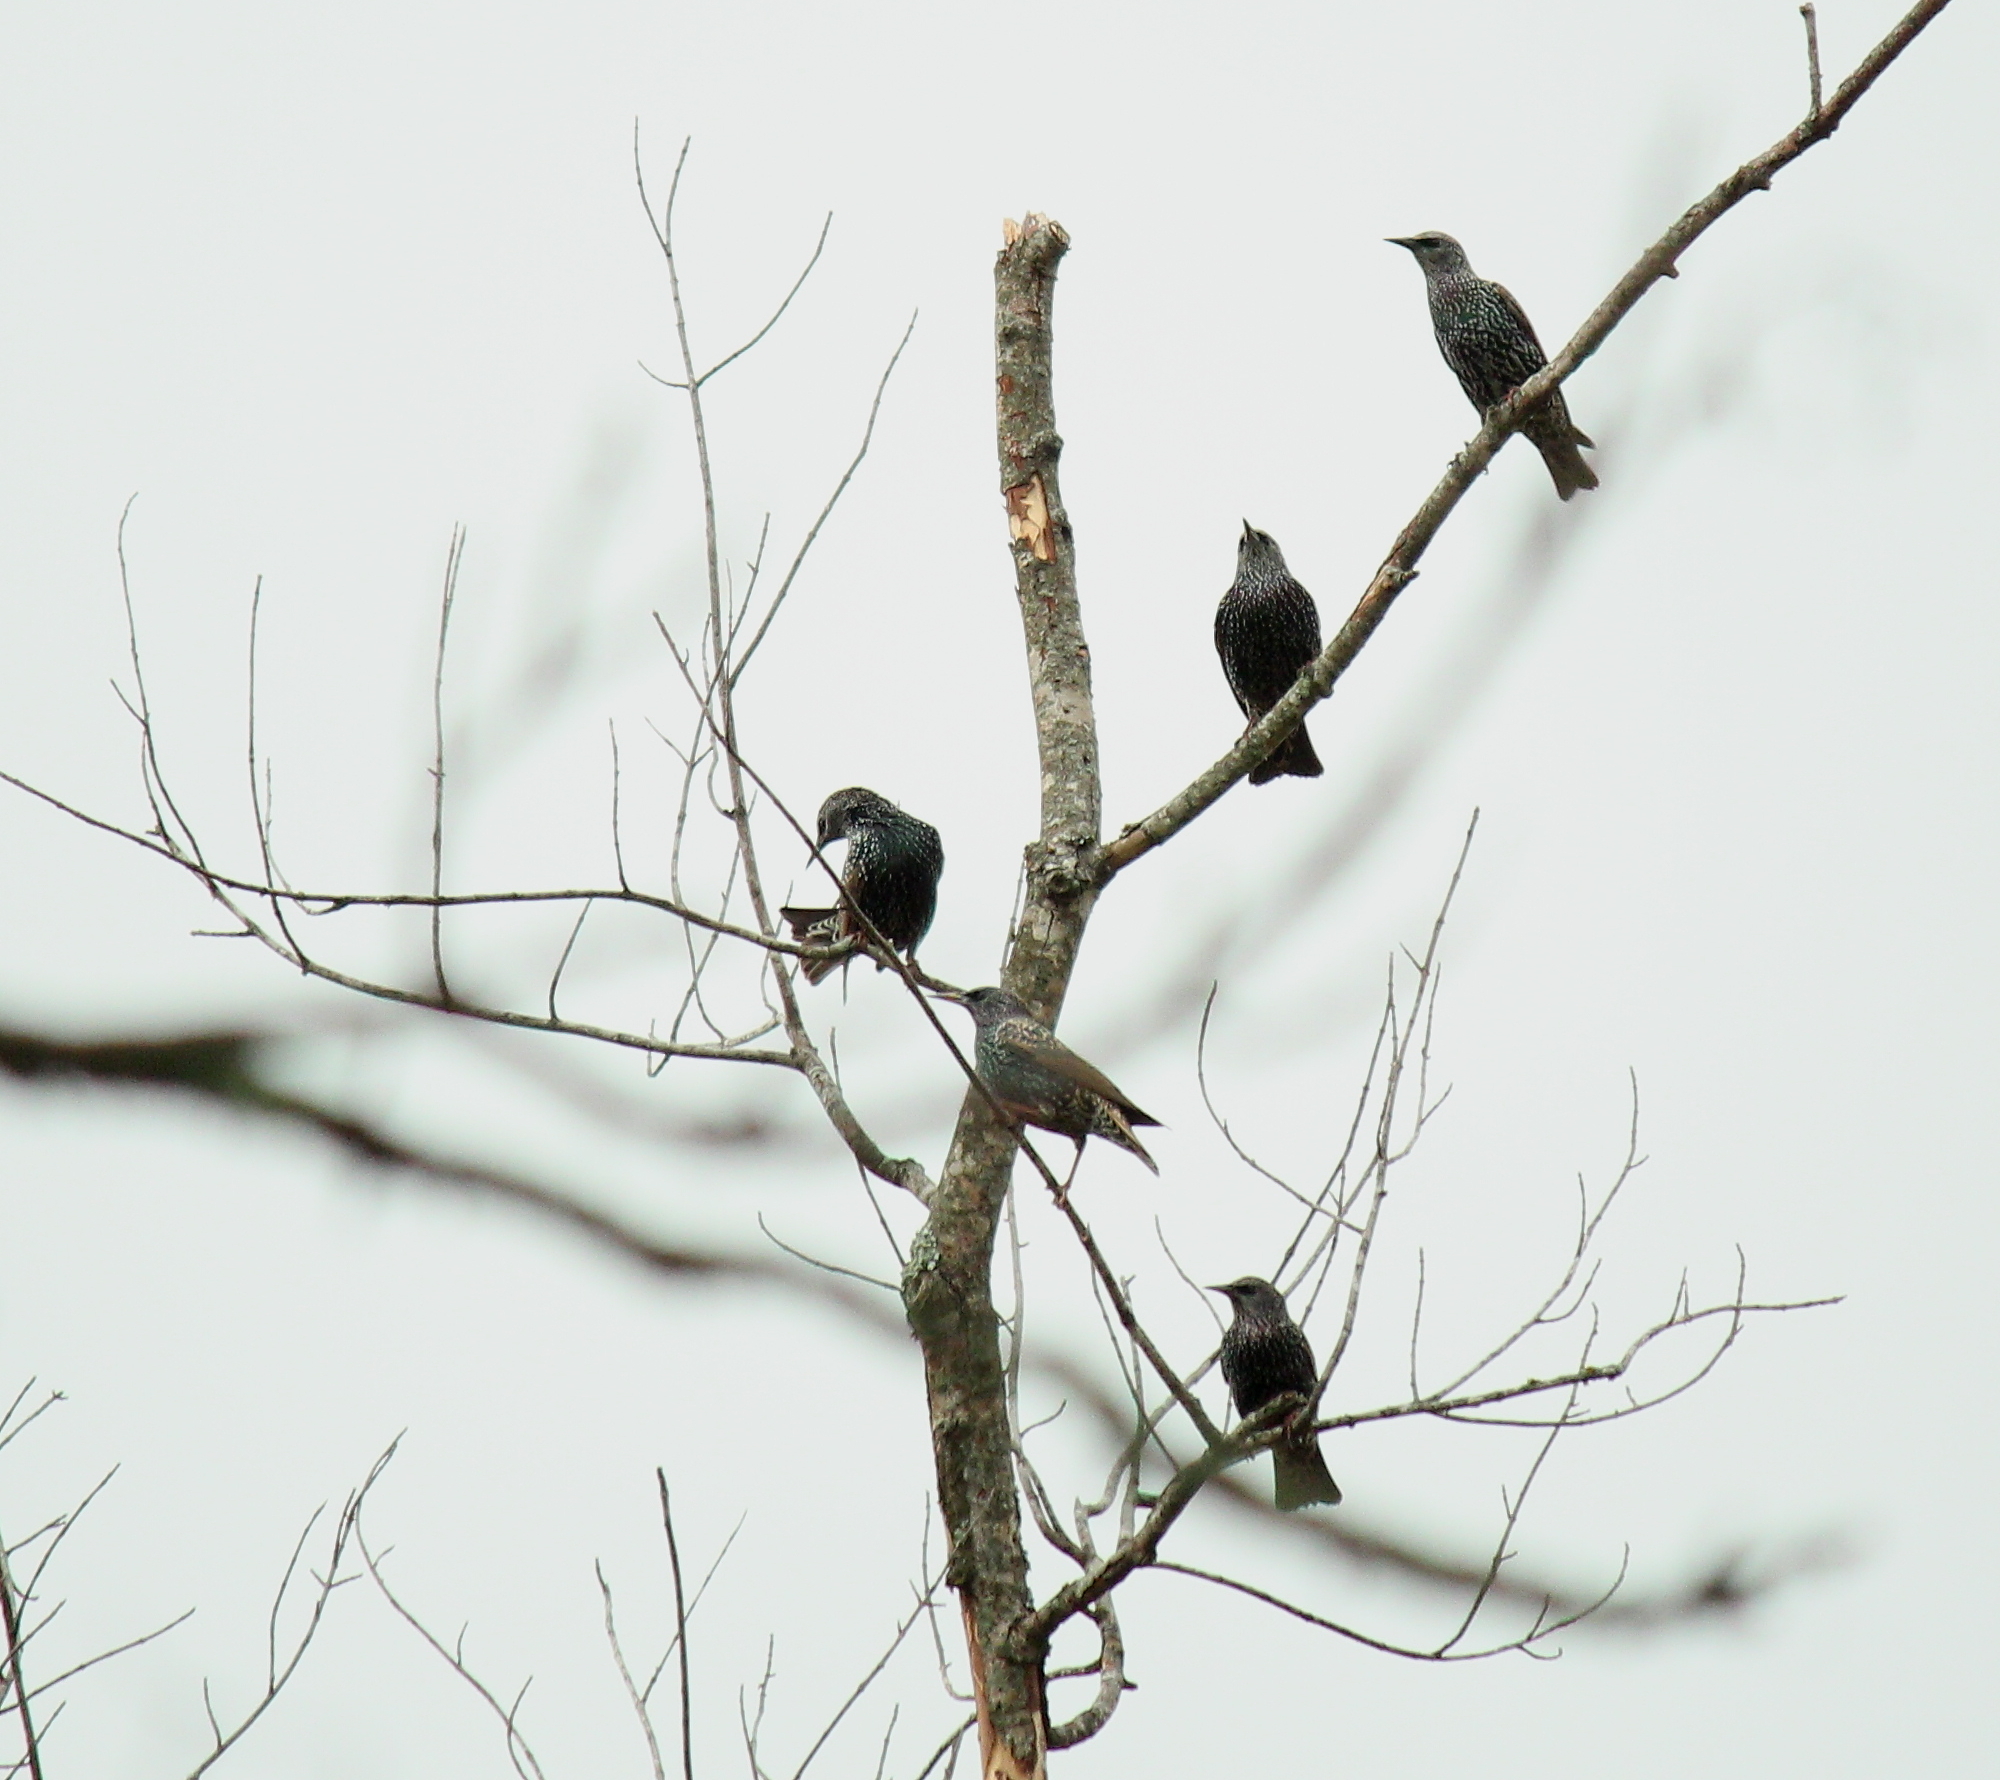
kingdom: Animalia
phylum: Chordata
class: Aves
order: Passeriformes
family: Sturnidae
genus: Sturnus
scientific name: Sturnus vulgaris
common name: Common starling
